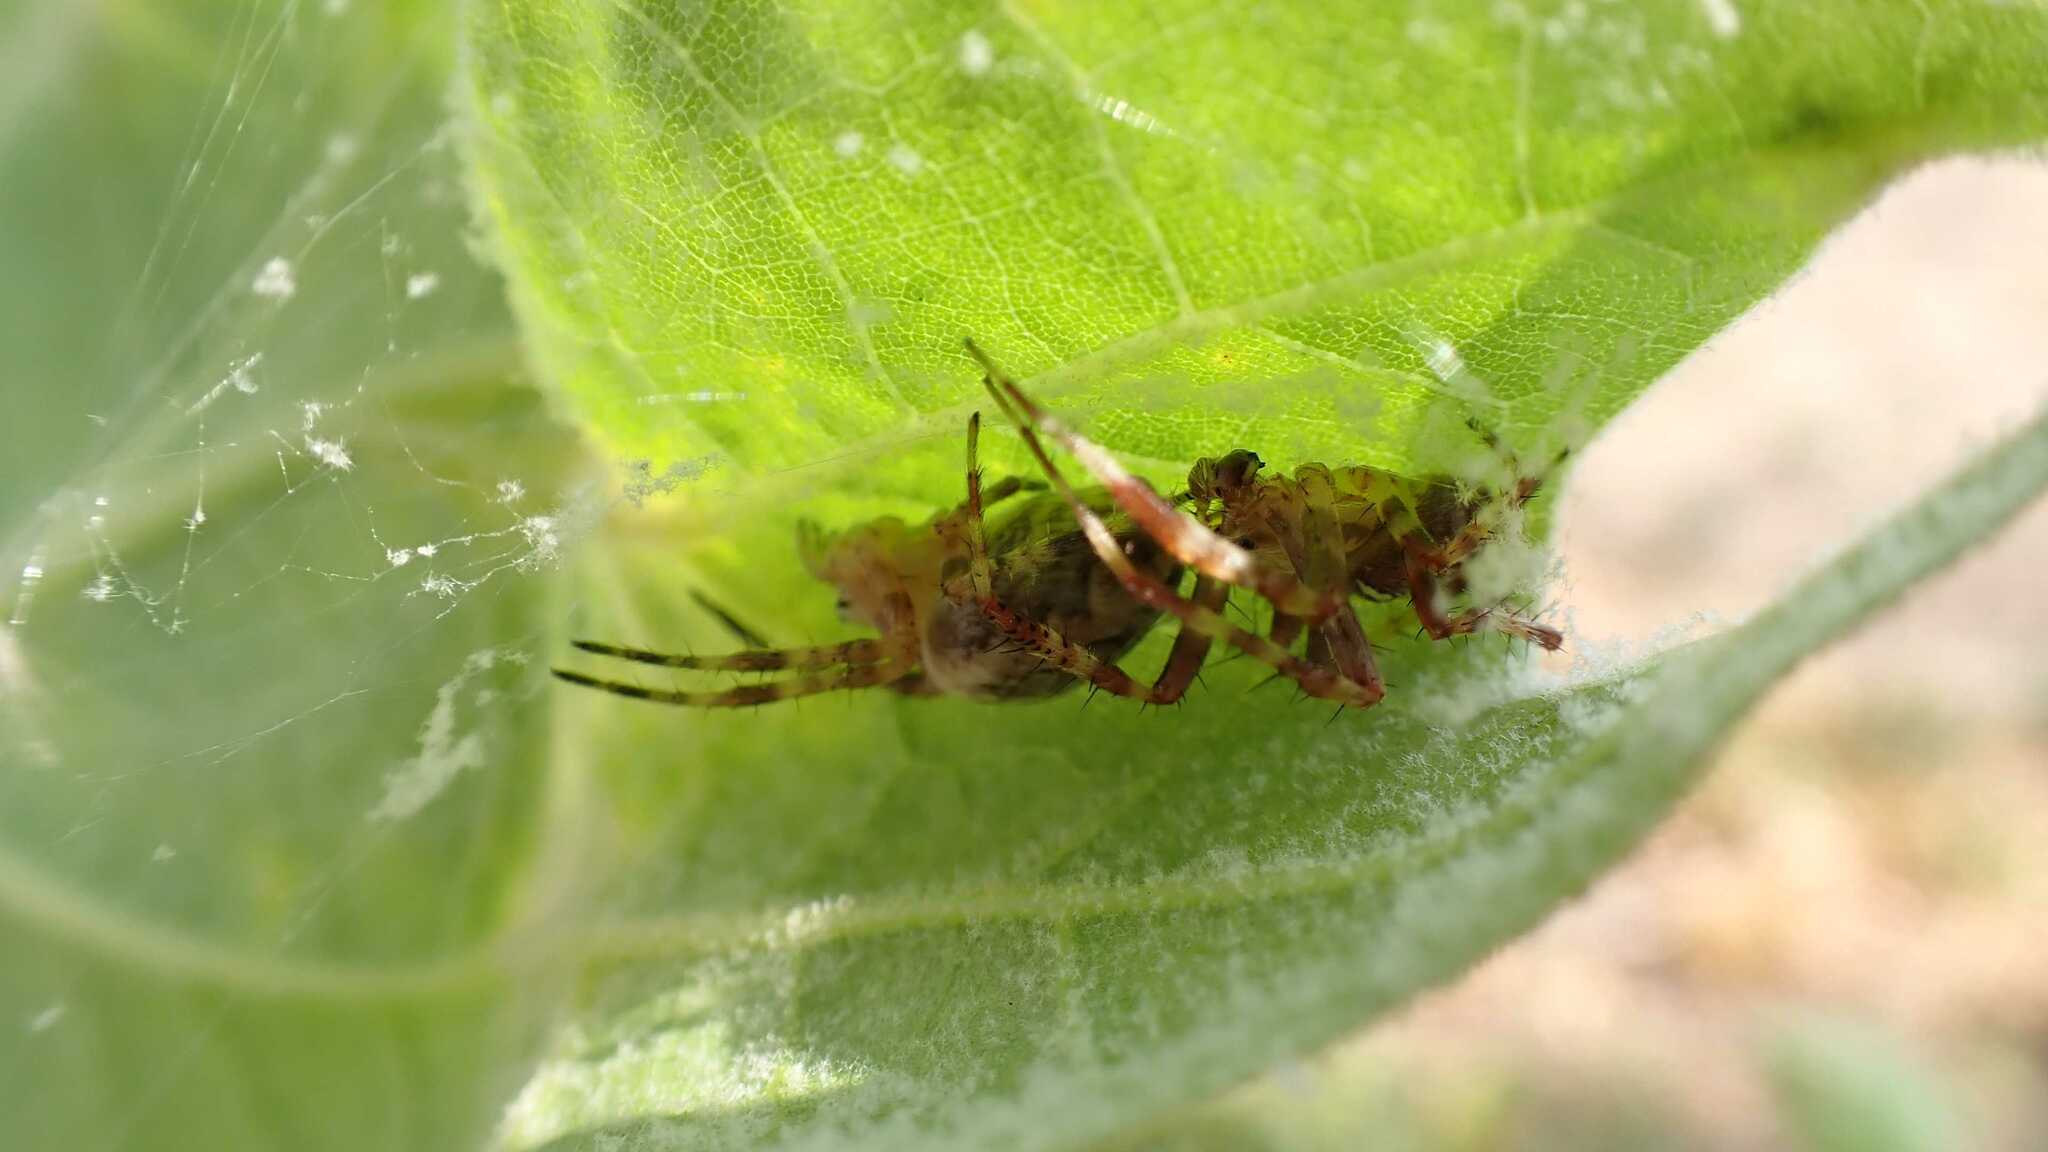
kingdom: Animalia
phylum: Arthropoda
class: Arachnida
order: Araneae
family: Araneidae
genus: Araneus
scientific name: Araneus diadematus
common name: Cross orbweaver
